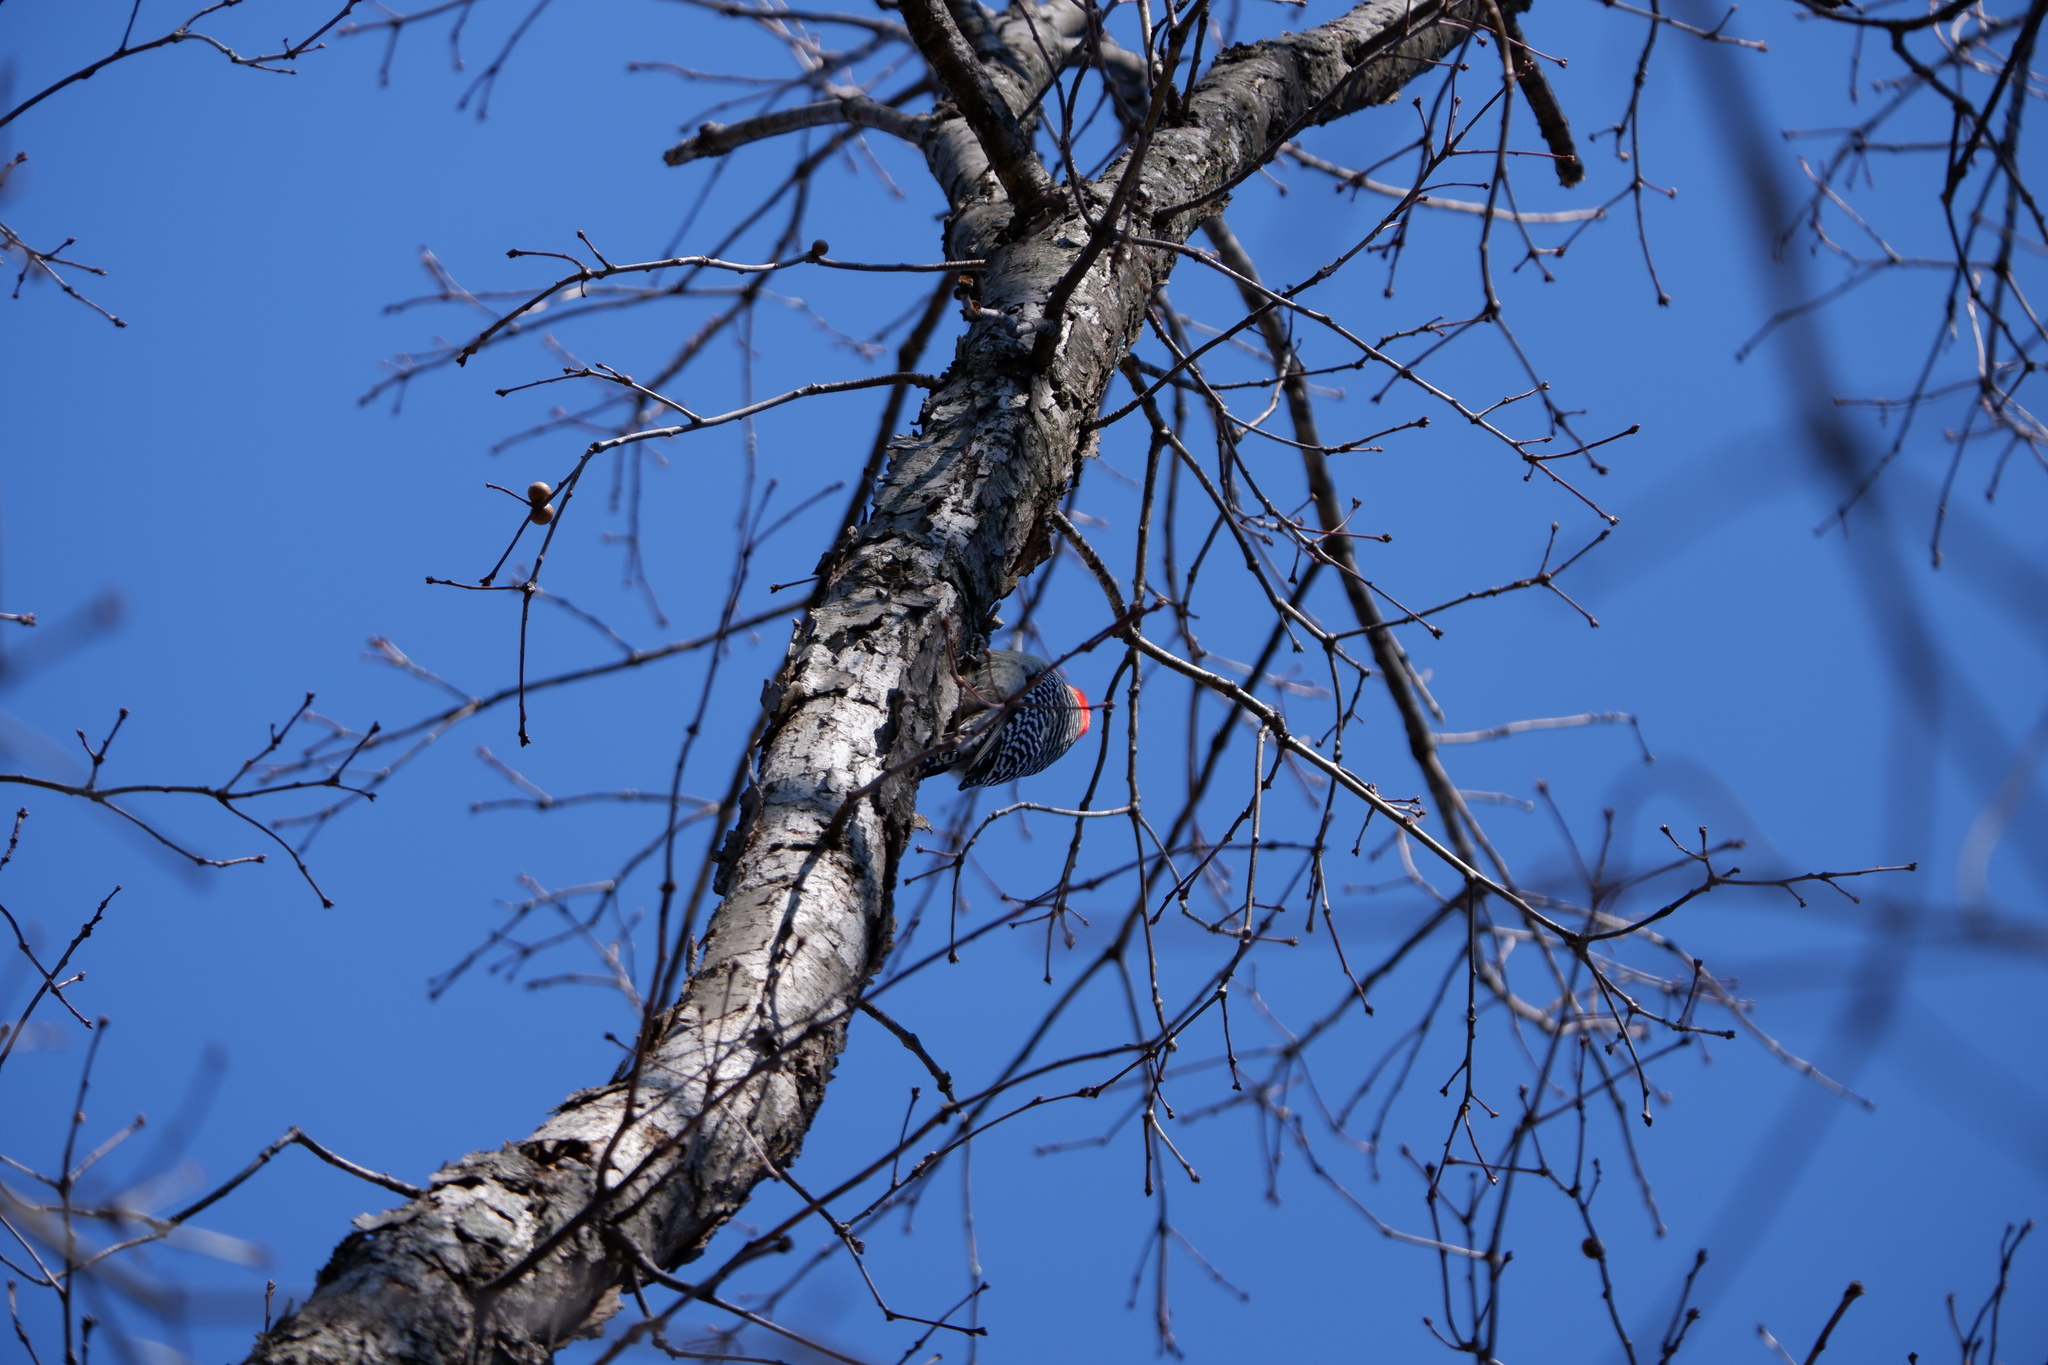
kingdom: Animalia
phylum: Arthropoda
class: Insecta
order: Hymenoptera
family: Cynipidae
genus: Disholcaspis
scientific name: Disholcaspis quercusglobulus
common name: Round bullet gall wasp
